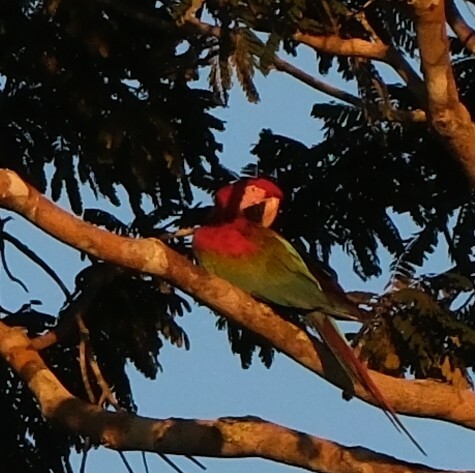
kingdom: Animalia
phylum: Chordata
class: Aves
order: Psittaciformes
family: Psittacidae
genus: Ara
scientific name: Ara chloropterus
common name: Red-and-green macaw
